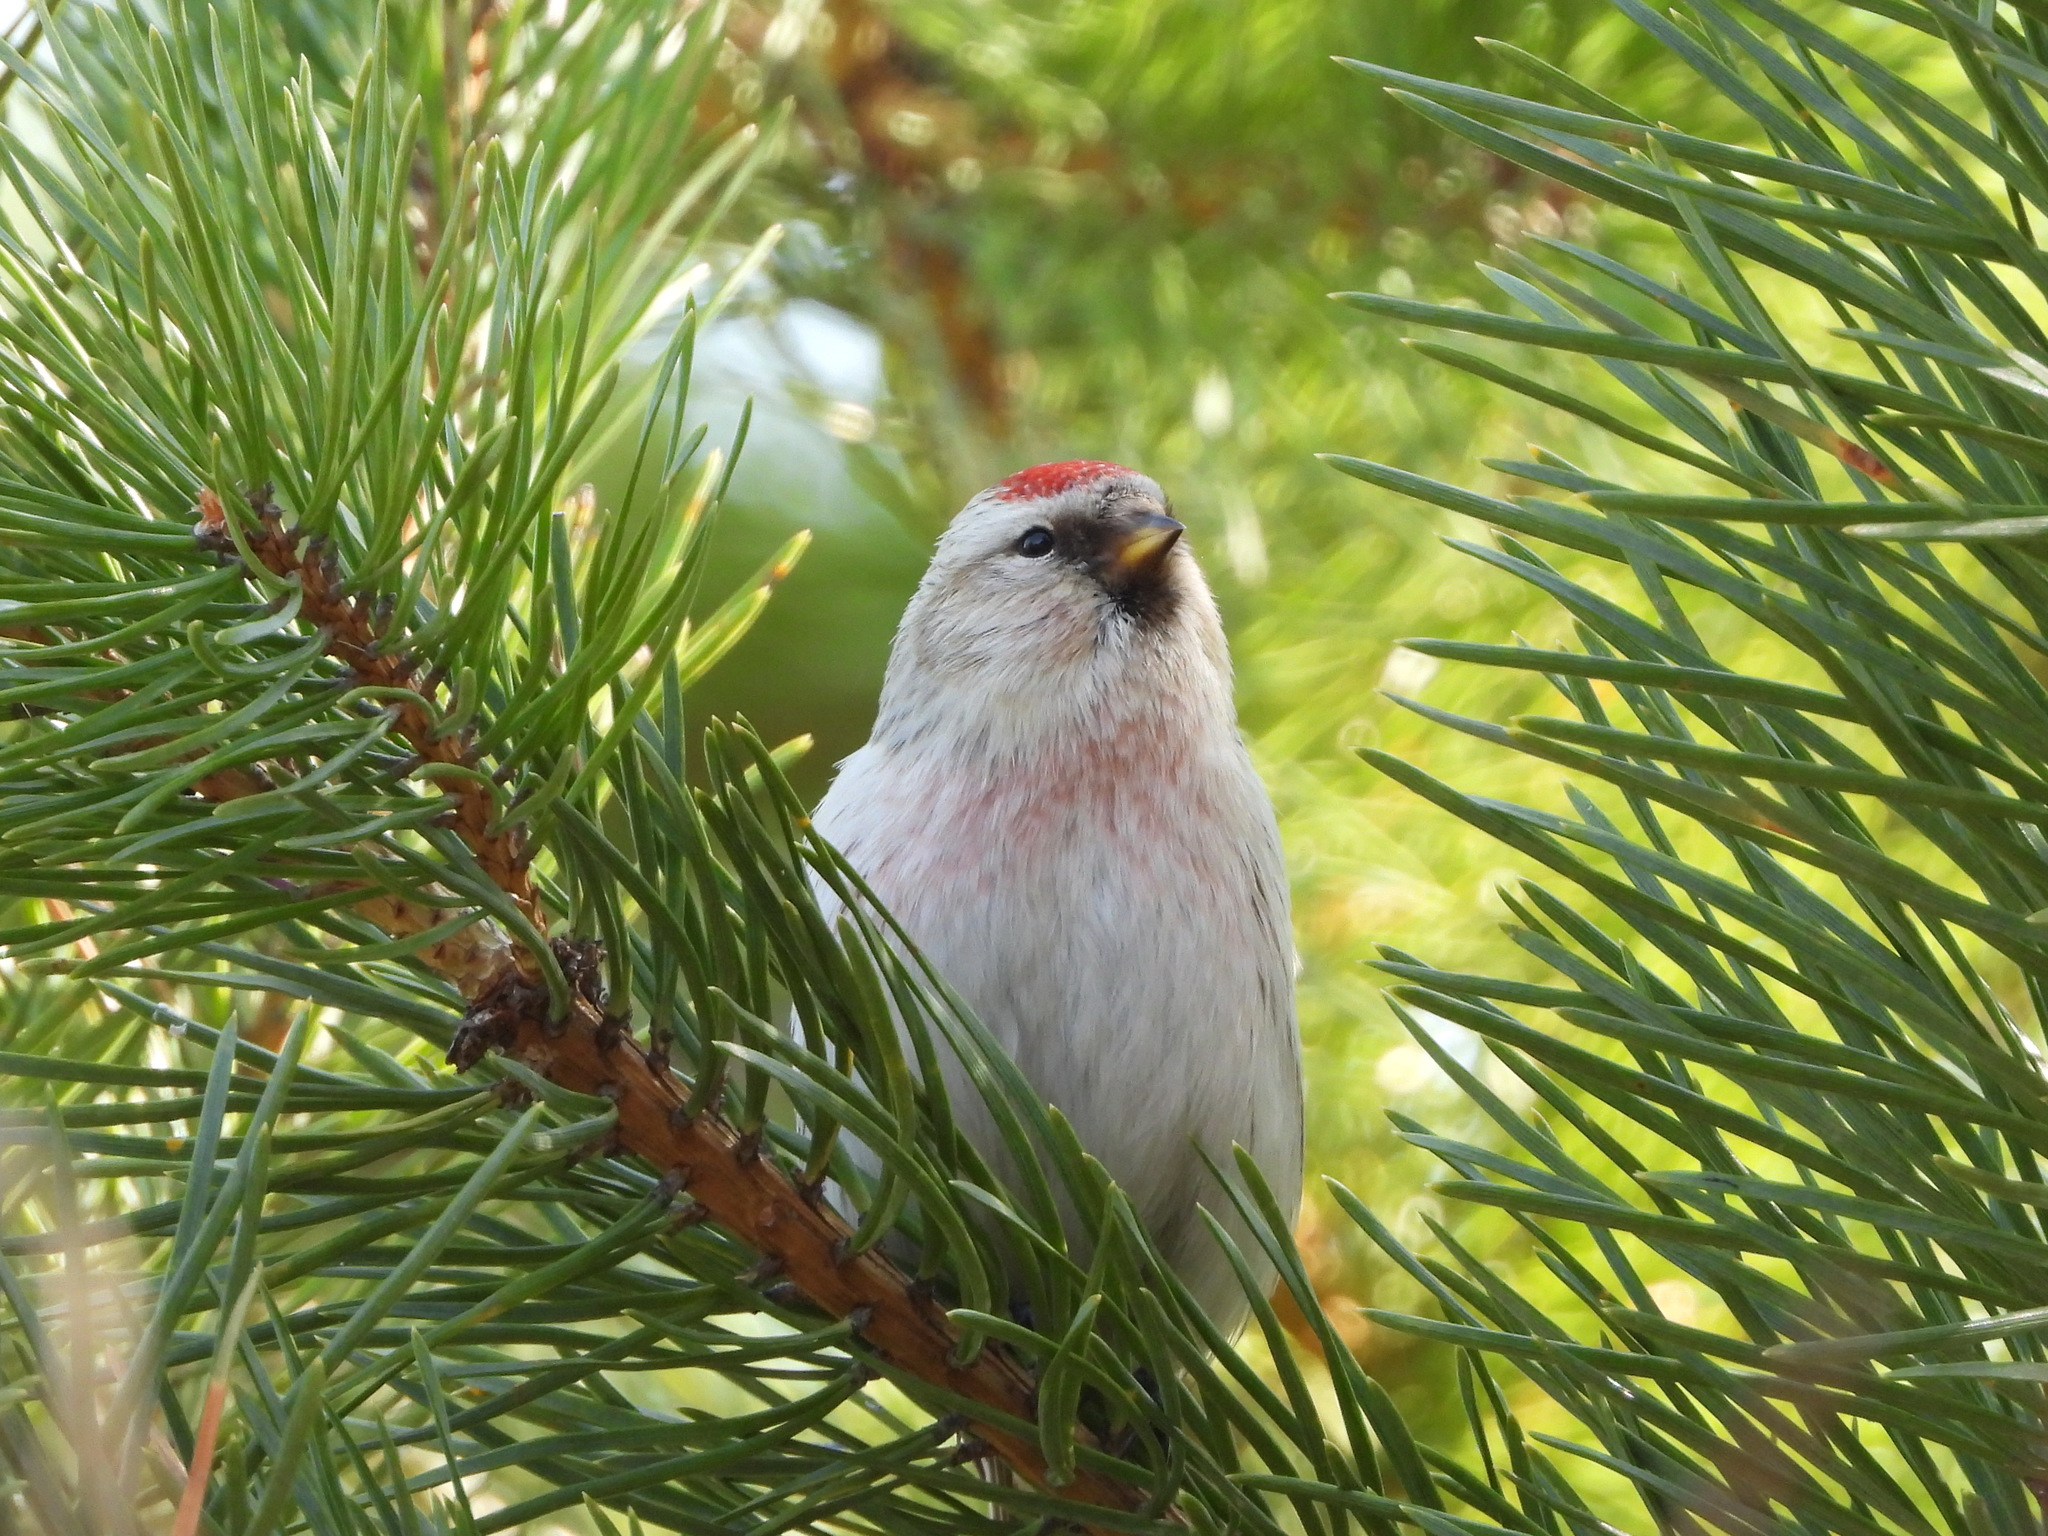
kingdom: Animalia
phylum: Chordata
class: Aves
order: Passeriformes
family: Fringillidae
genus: Acanthis
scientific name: Acanthis hornemanni
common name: Arctic redpoll
